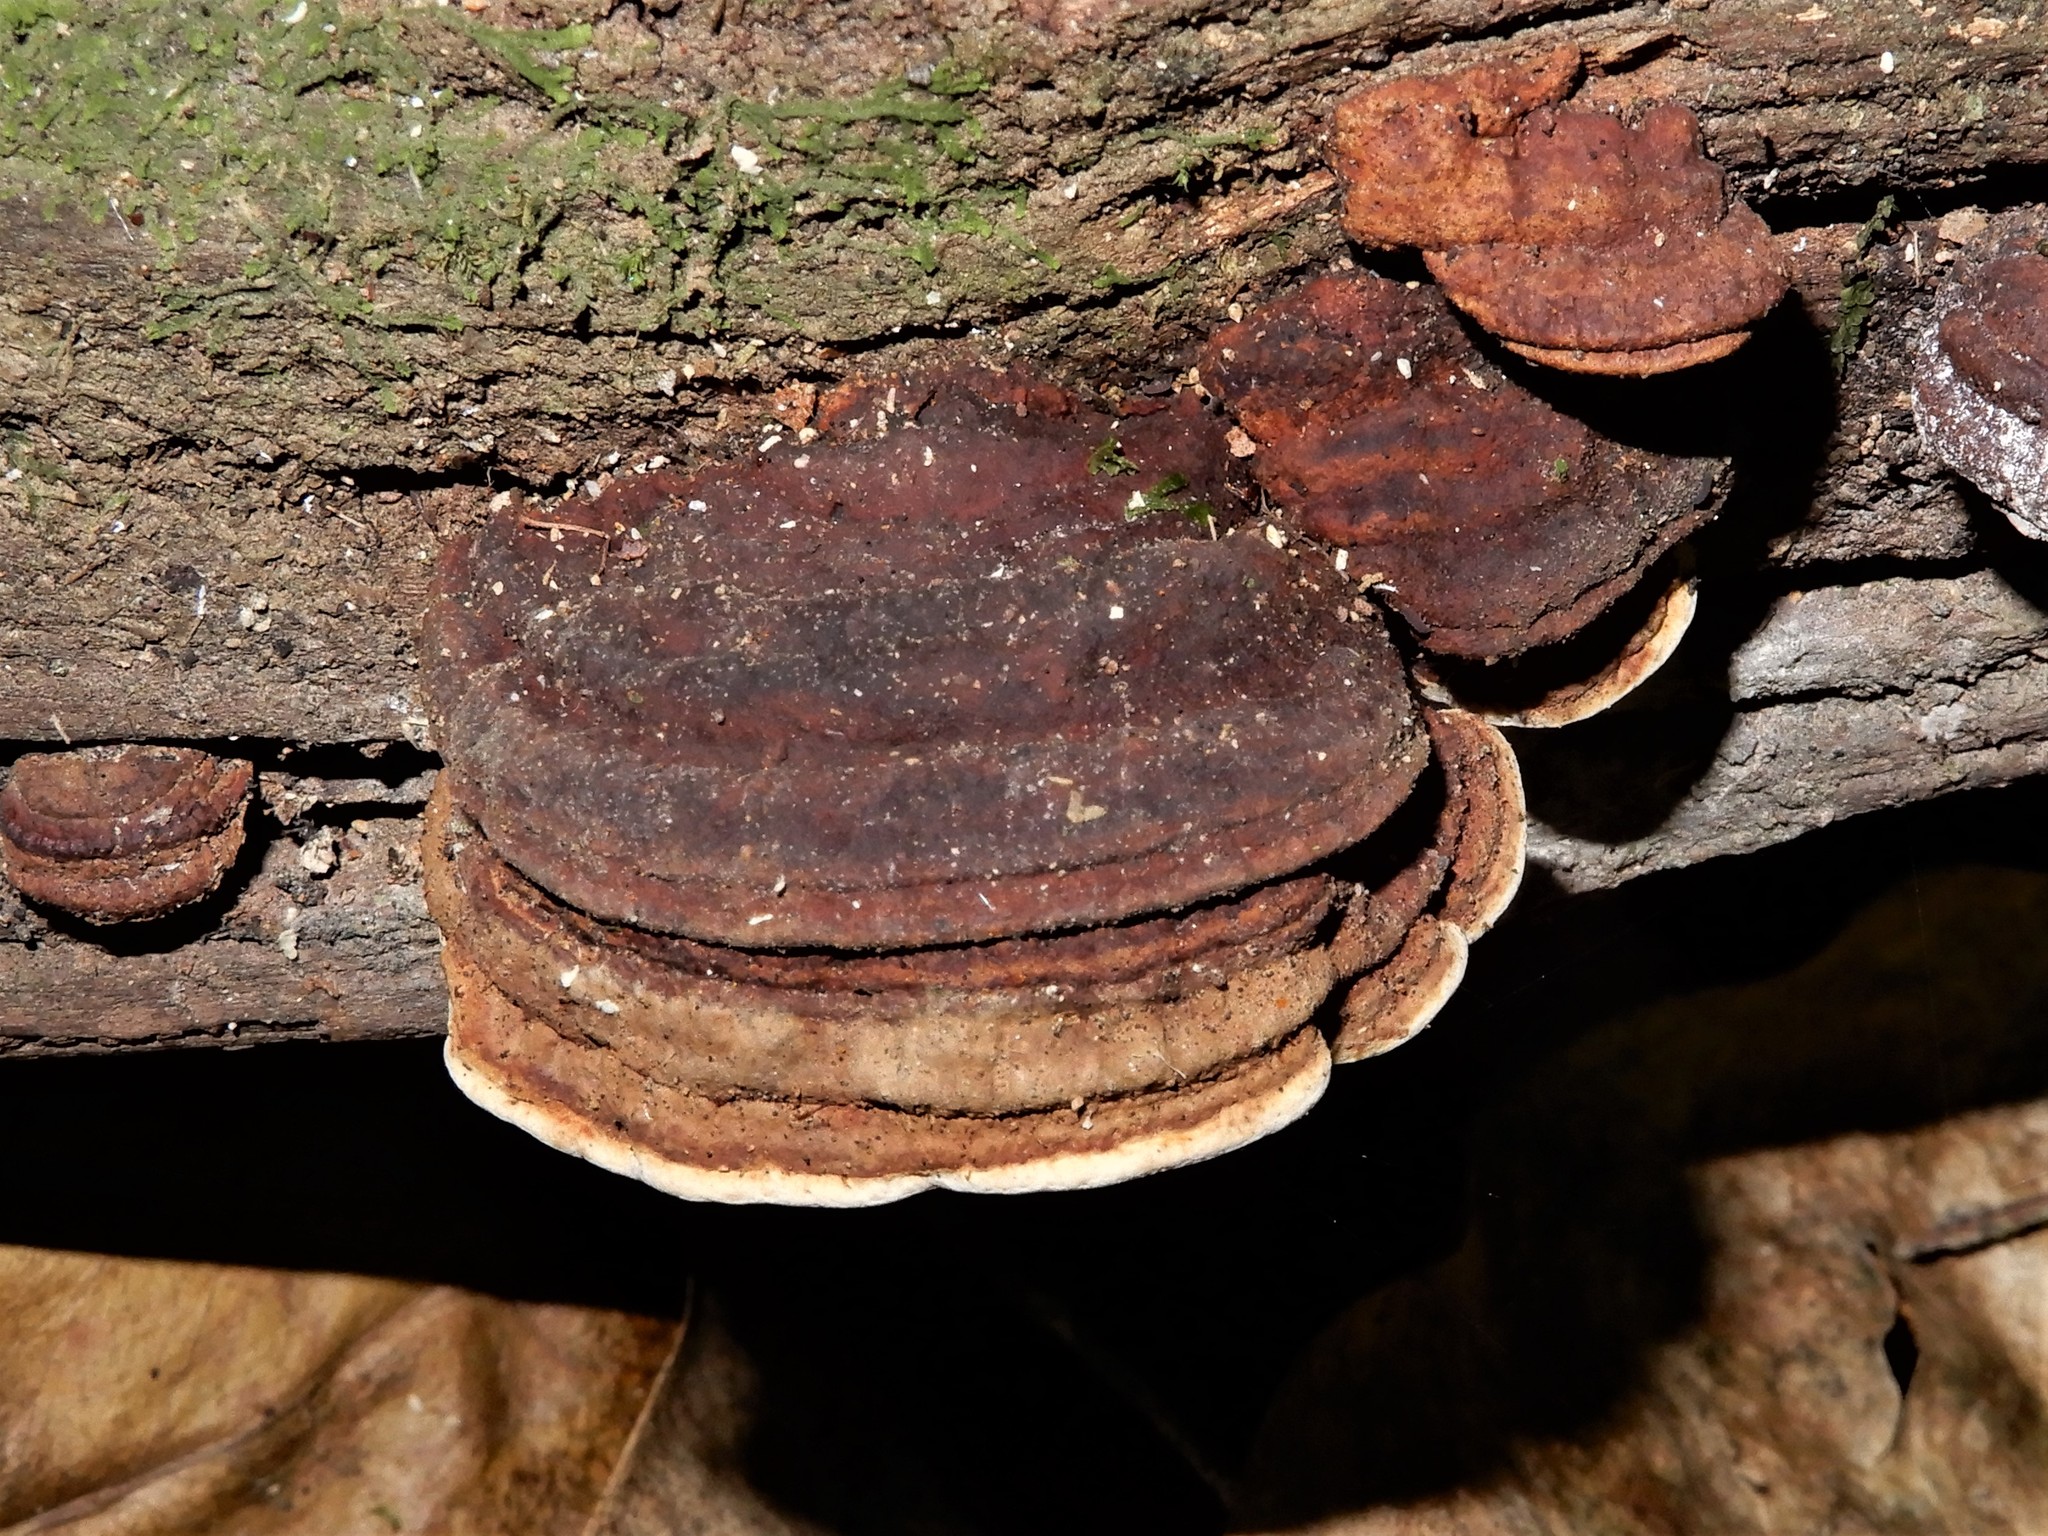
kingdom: Fungi
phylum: Basidiomycota
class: Agaricomycetes
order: Polyporales
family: Polyporaceae
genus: Truncospora
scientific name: Truncospora ochroleuca
